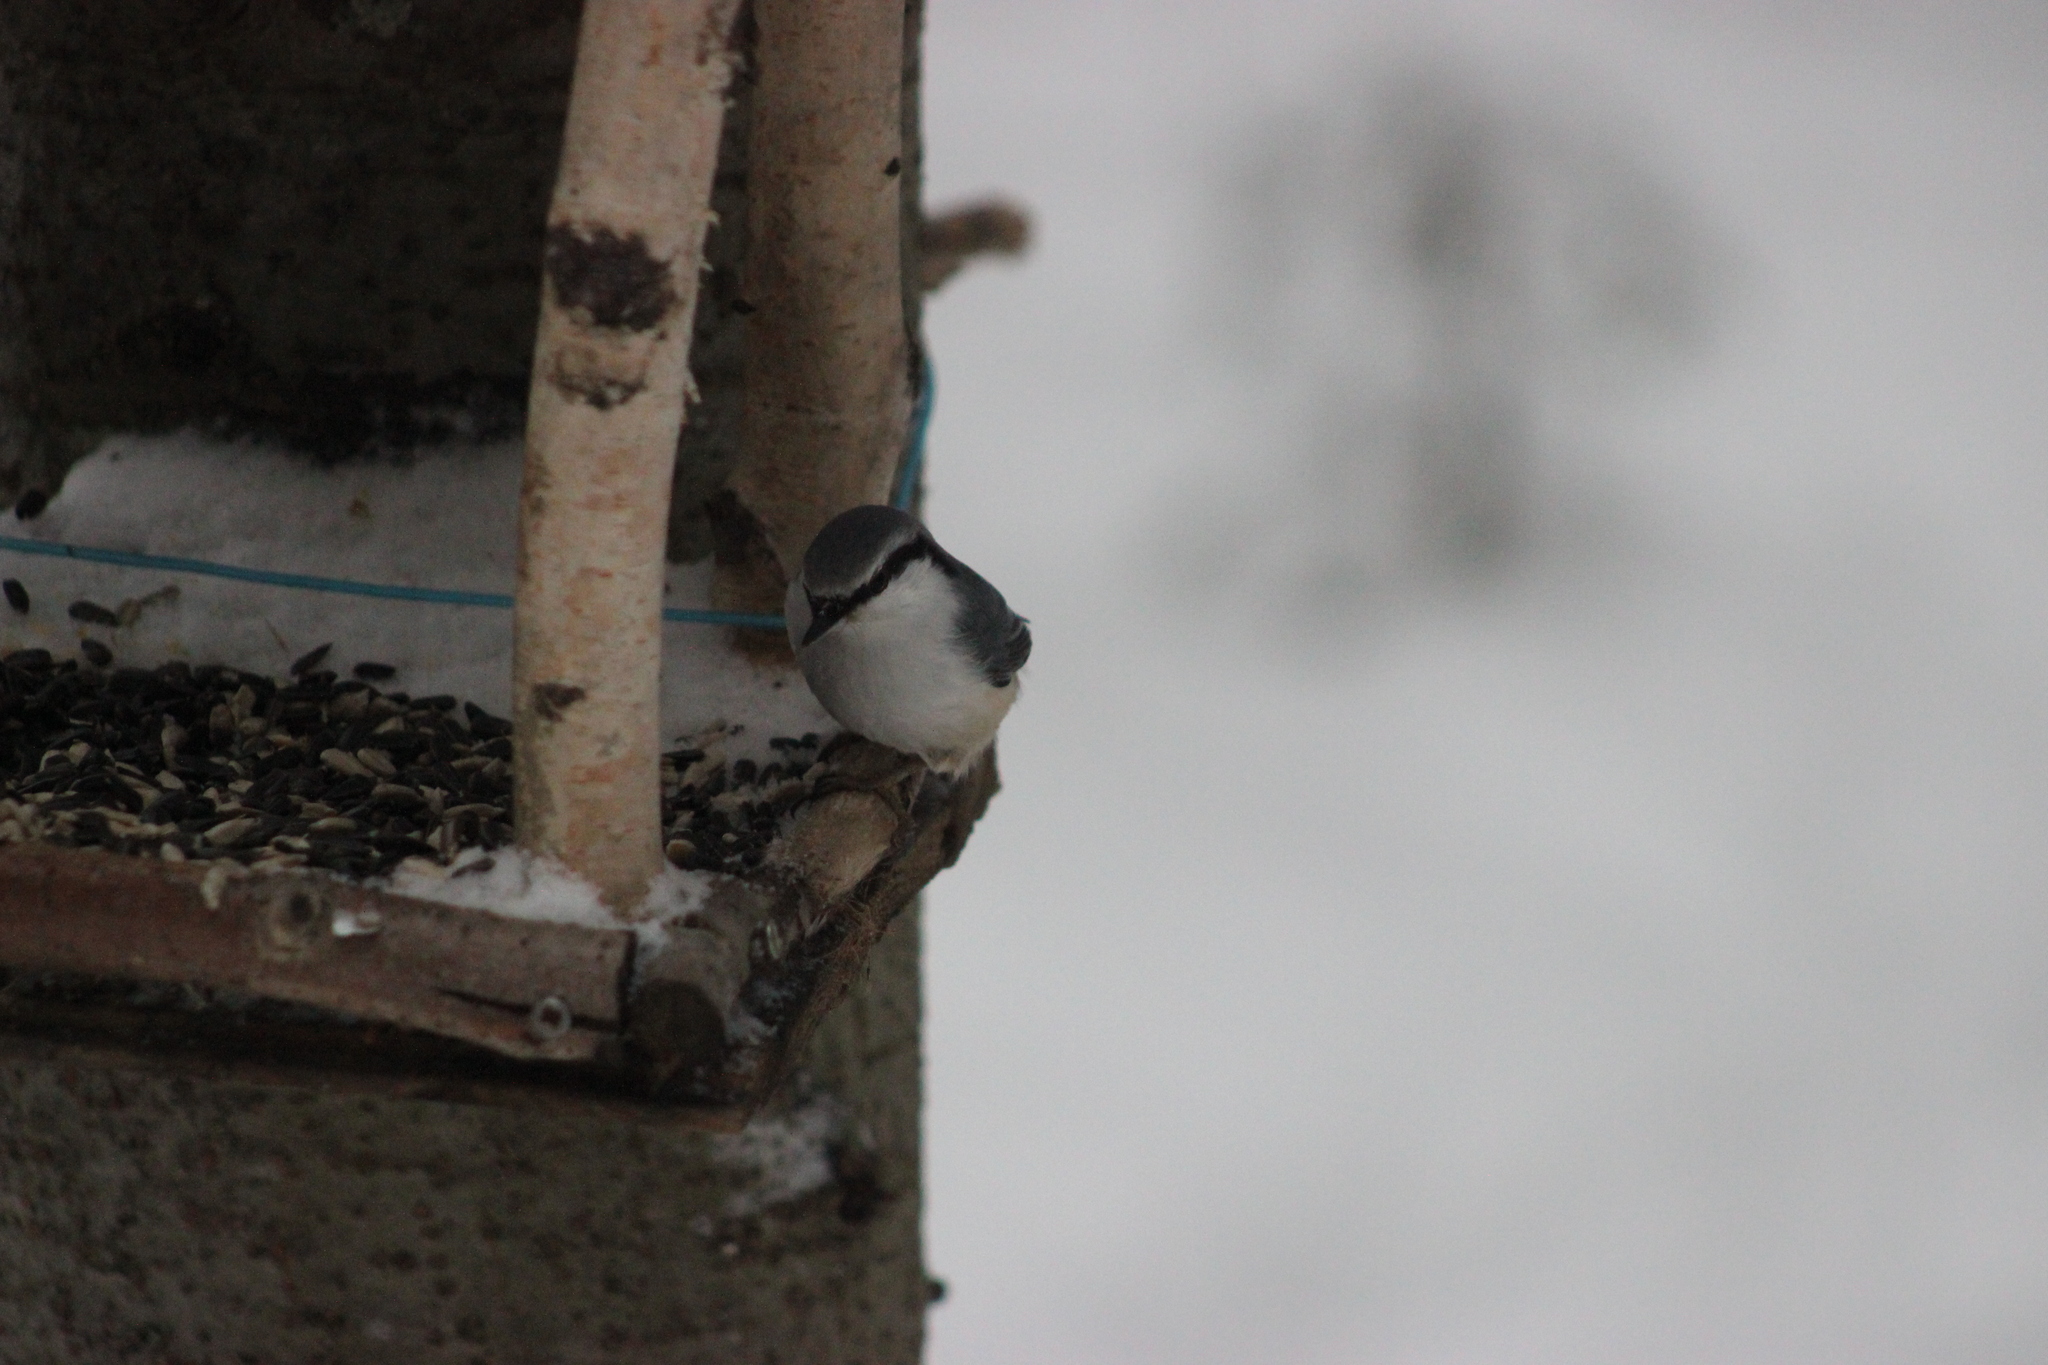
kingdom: Animalia
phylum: Chordata
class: Aves
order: Passeriformes
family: Sittidae
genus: Sitta
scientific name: Sitta europaea
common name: Eurasian nuthatch
